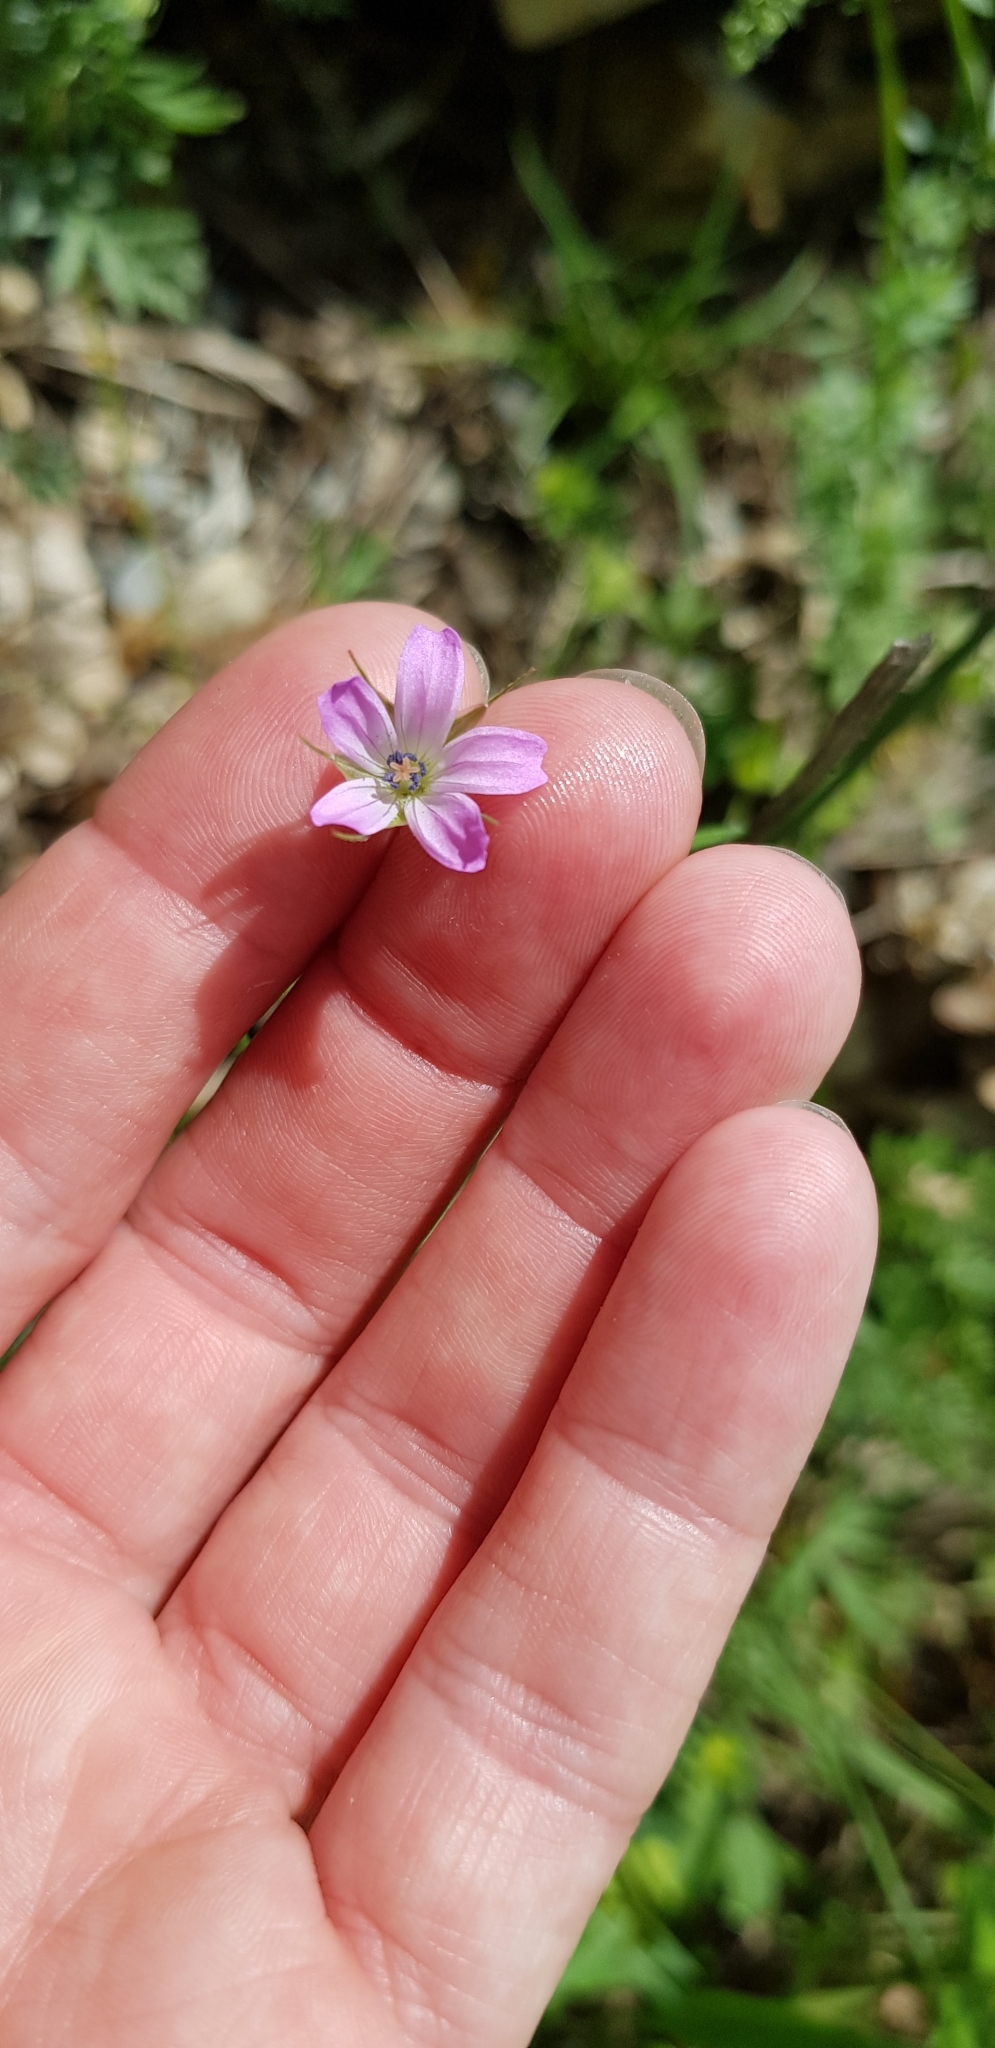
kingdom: Plantae
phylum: Tracheophyta
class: Magnoliopsida
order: Geraniales
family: Geraniaceae
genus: Geranium
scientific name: Geranium columbinum
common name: Long-stalked crane's-bill
